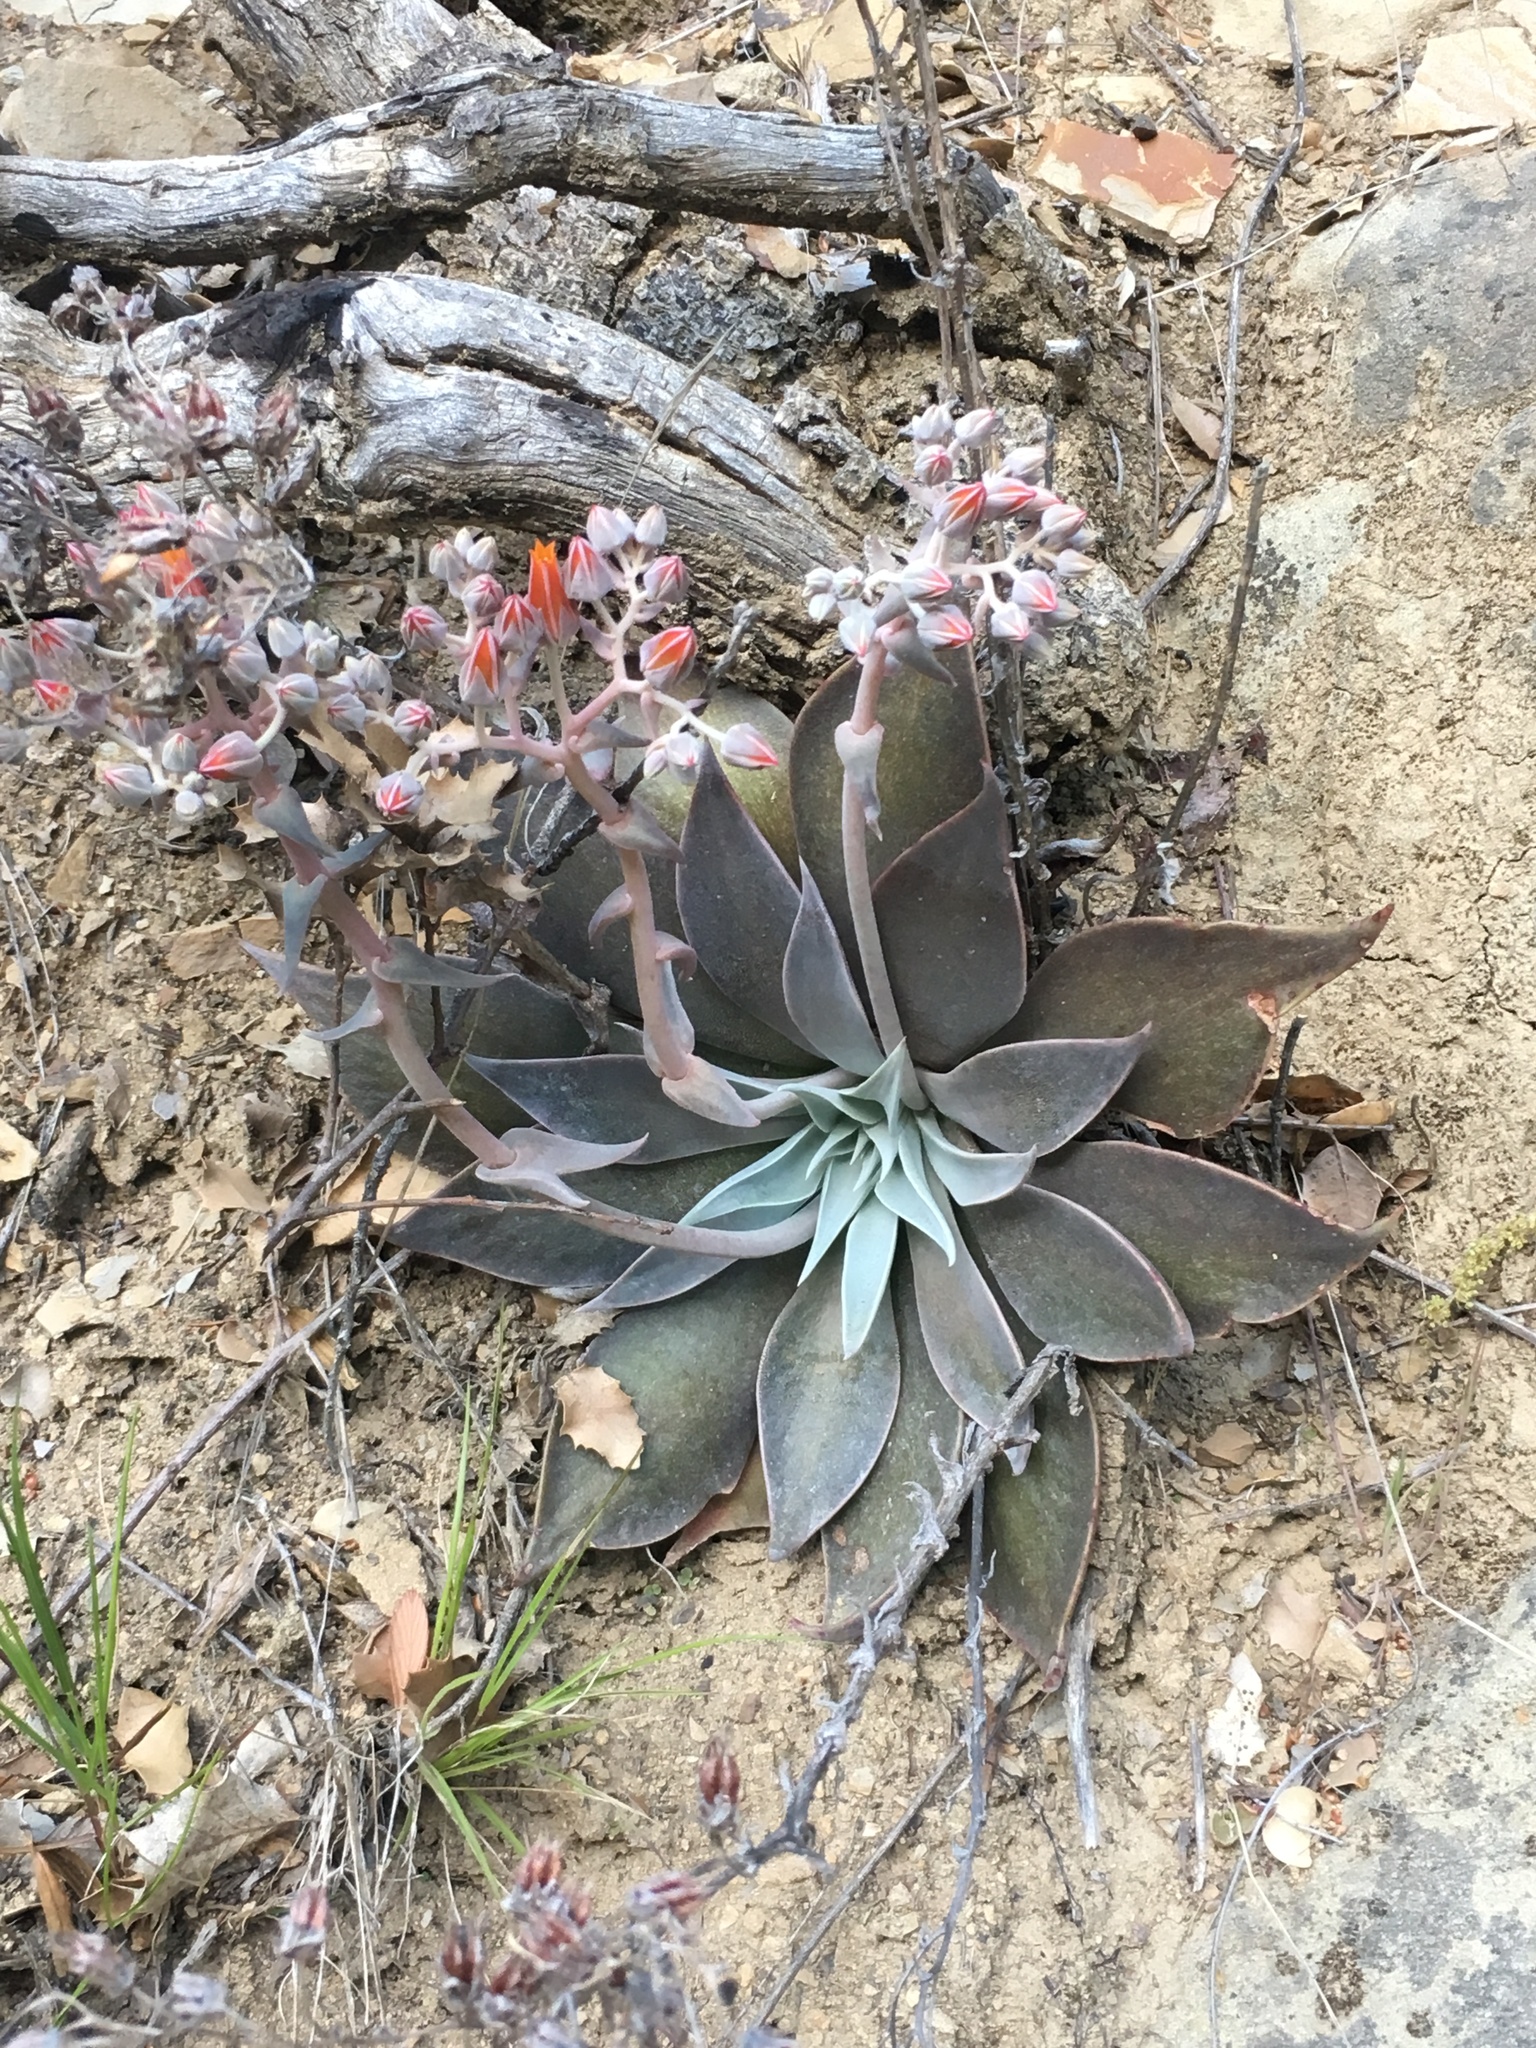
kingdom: Plantae
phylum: Tracheophyta
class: Magnoliopsida
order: Saxifragales
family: Crassulaceae
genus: Dudleya
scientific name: Dudleya cymosa
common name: Canyon dudleya
